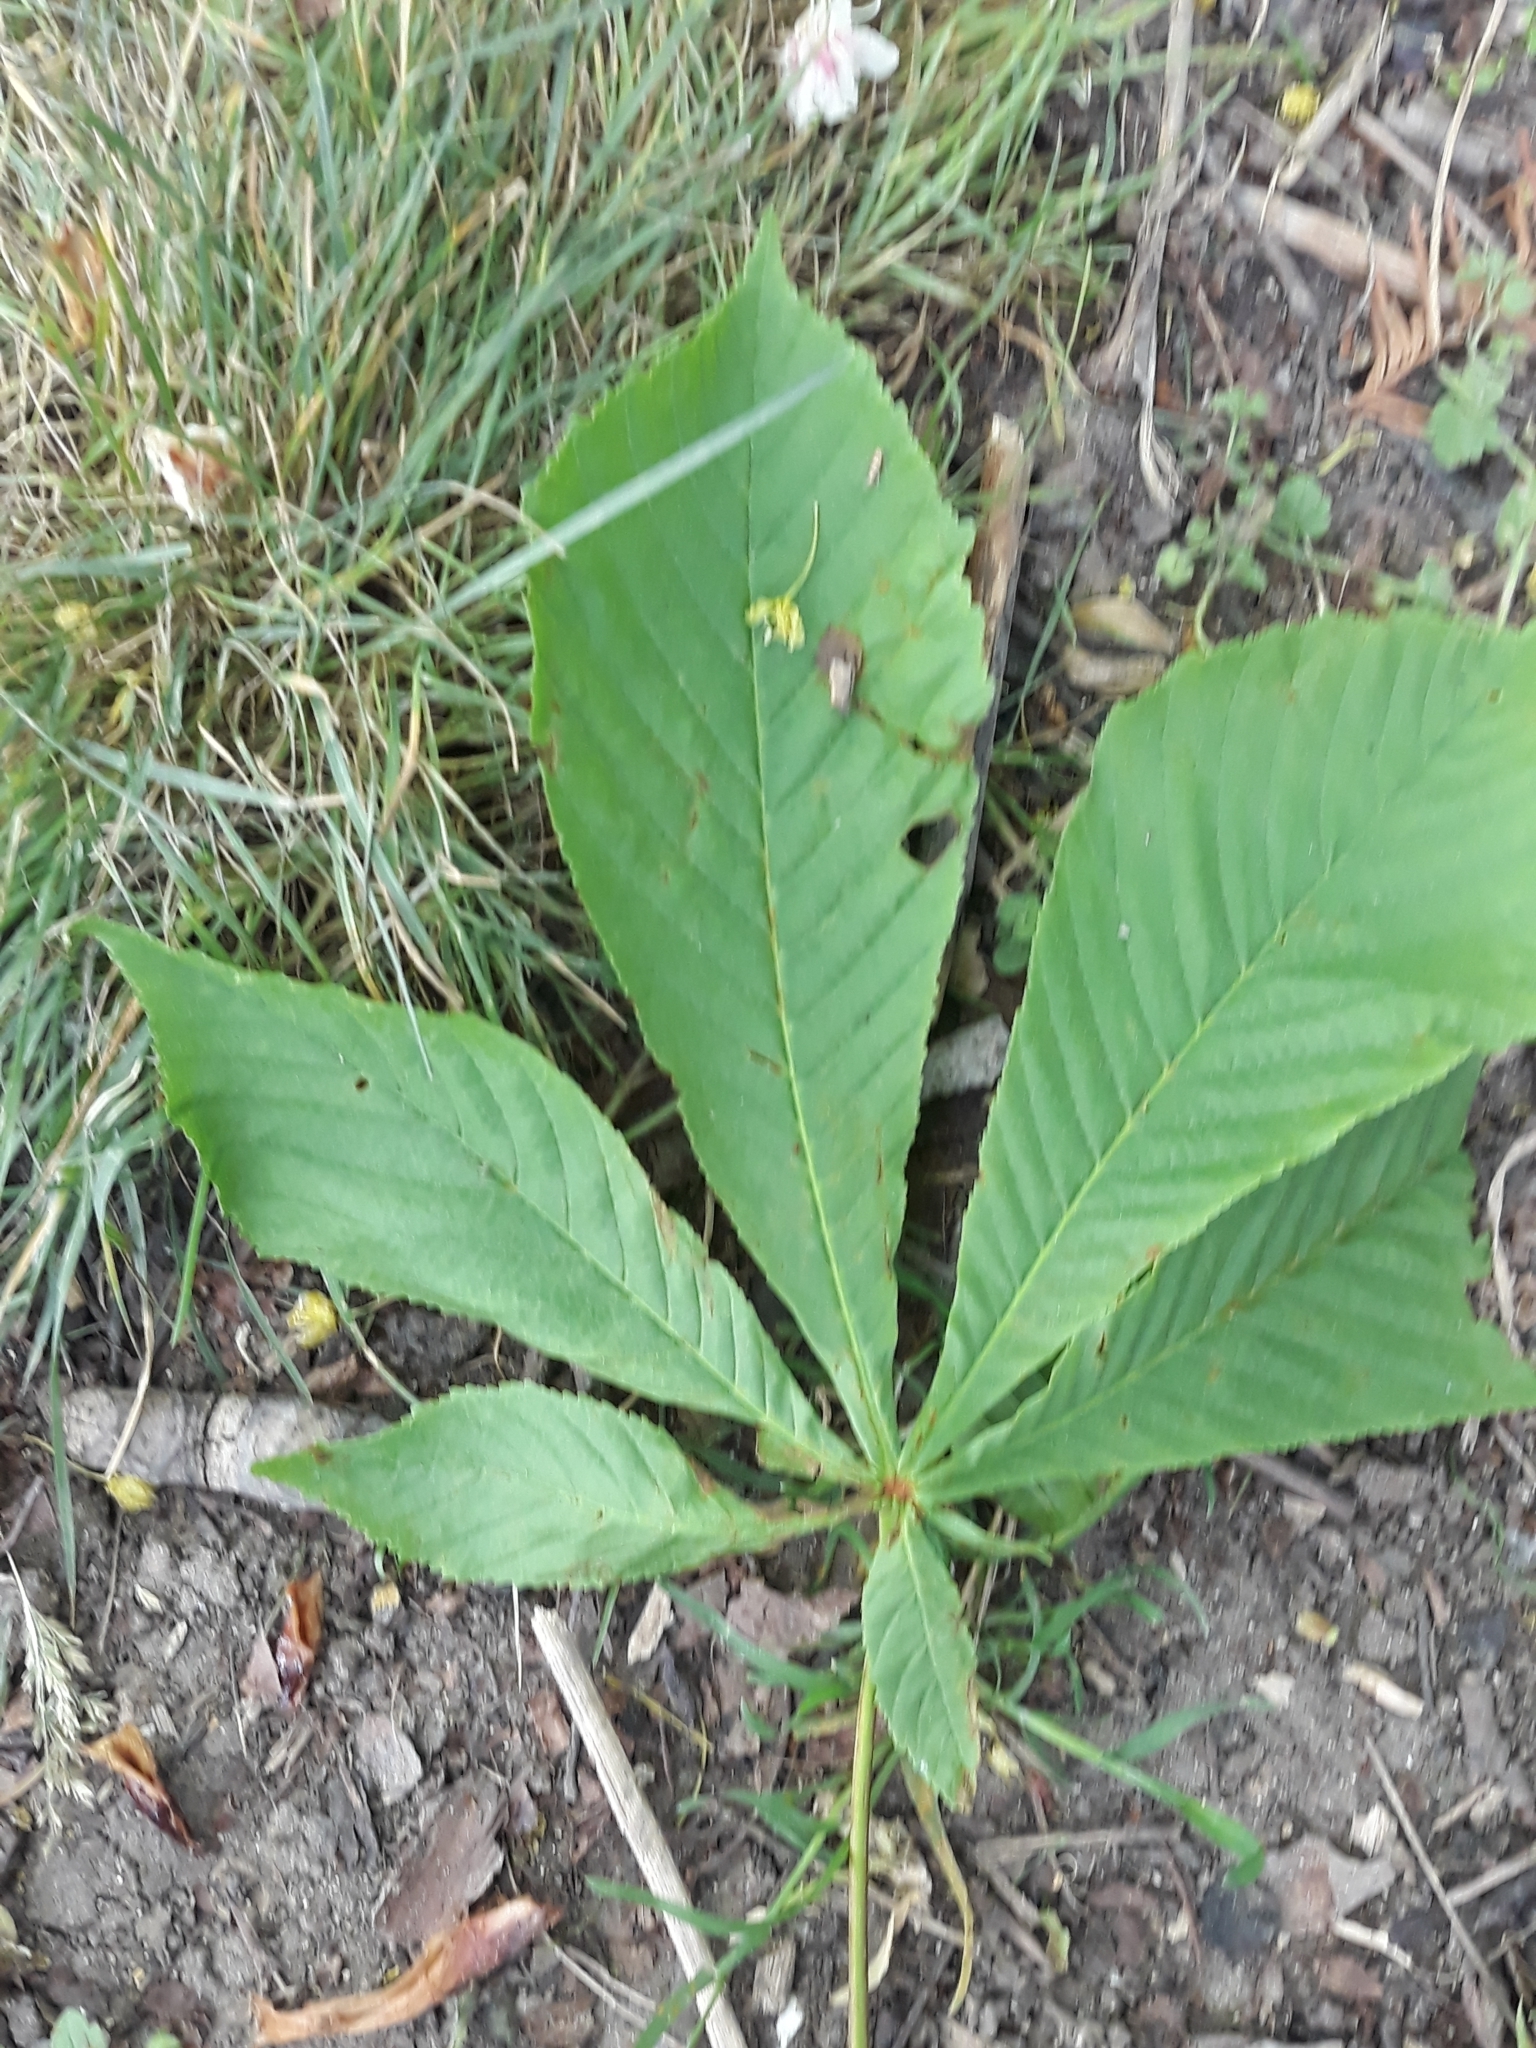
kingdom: Plantae
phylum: Tracheophyta
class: Magnoliopsida
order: Sapindales
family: Sapindaceae
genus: Aesculus
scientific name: Aesculus hippocastanum
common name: Horse-chestnut
